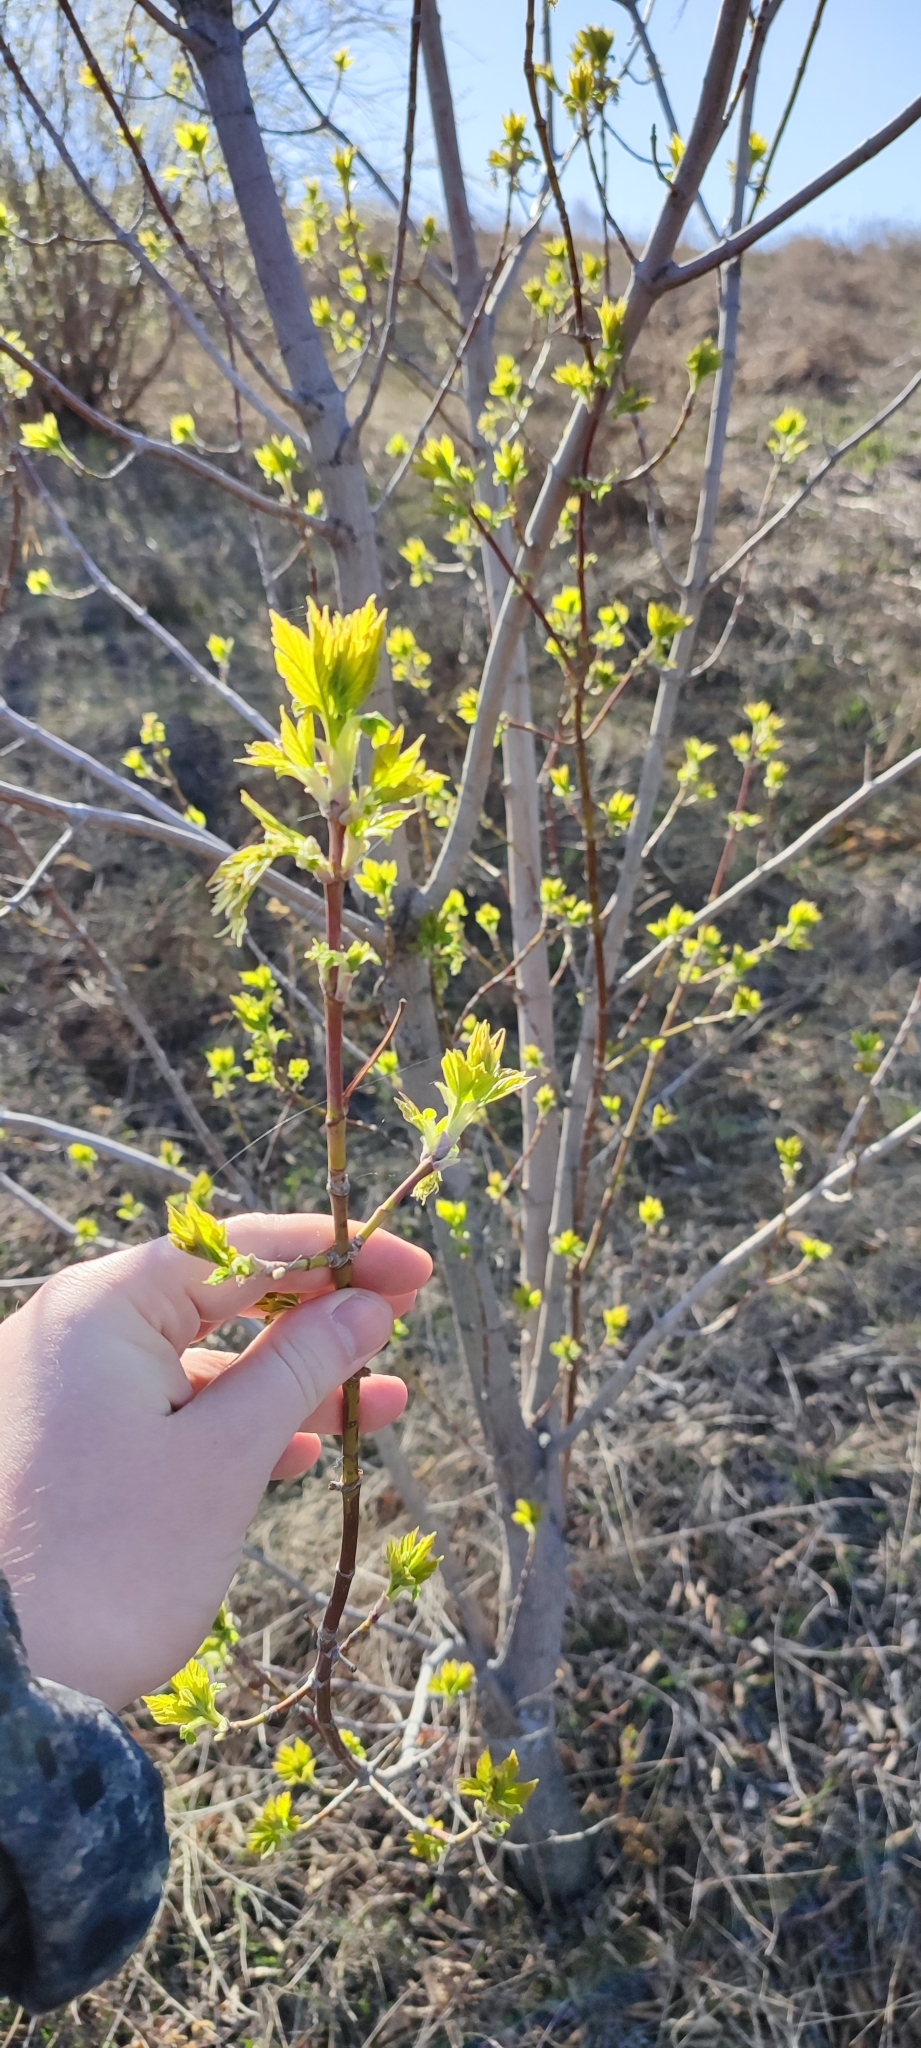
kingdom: Plantae
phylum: Tracheophyta
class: Magnoliopsida
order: Sapindales
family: Sapindaceae
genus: Acer
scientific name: Acer negundo
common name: Ashleaf maple
